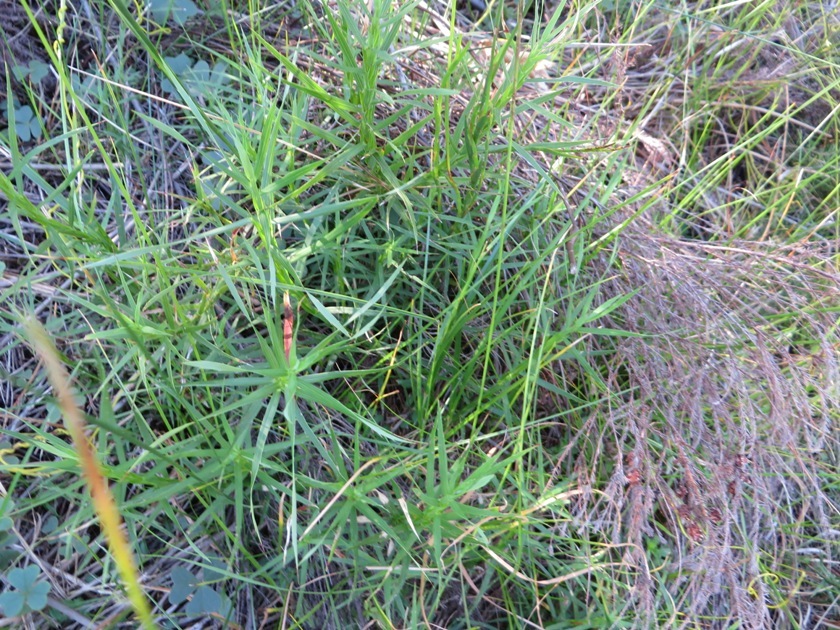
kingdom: Plantae
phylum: Tracheophyta
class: Magnoliopsida
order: Rosales
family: Rosaceae
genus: Cliffortia
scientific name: Cliffortia graminea
